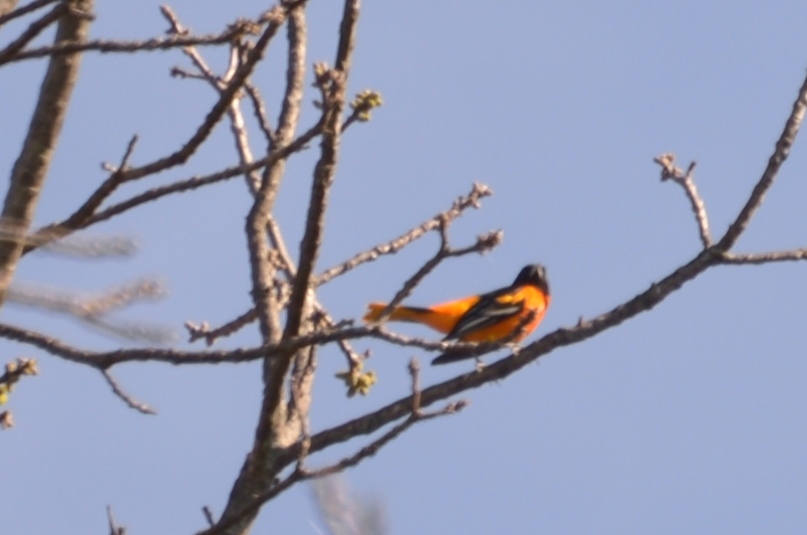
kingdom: Animalia
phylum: Chordata
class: Aves
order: Passeriformes
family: Icteridae
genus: Icterus
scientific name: Icterus galbula
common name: Baltimore oriole
